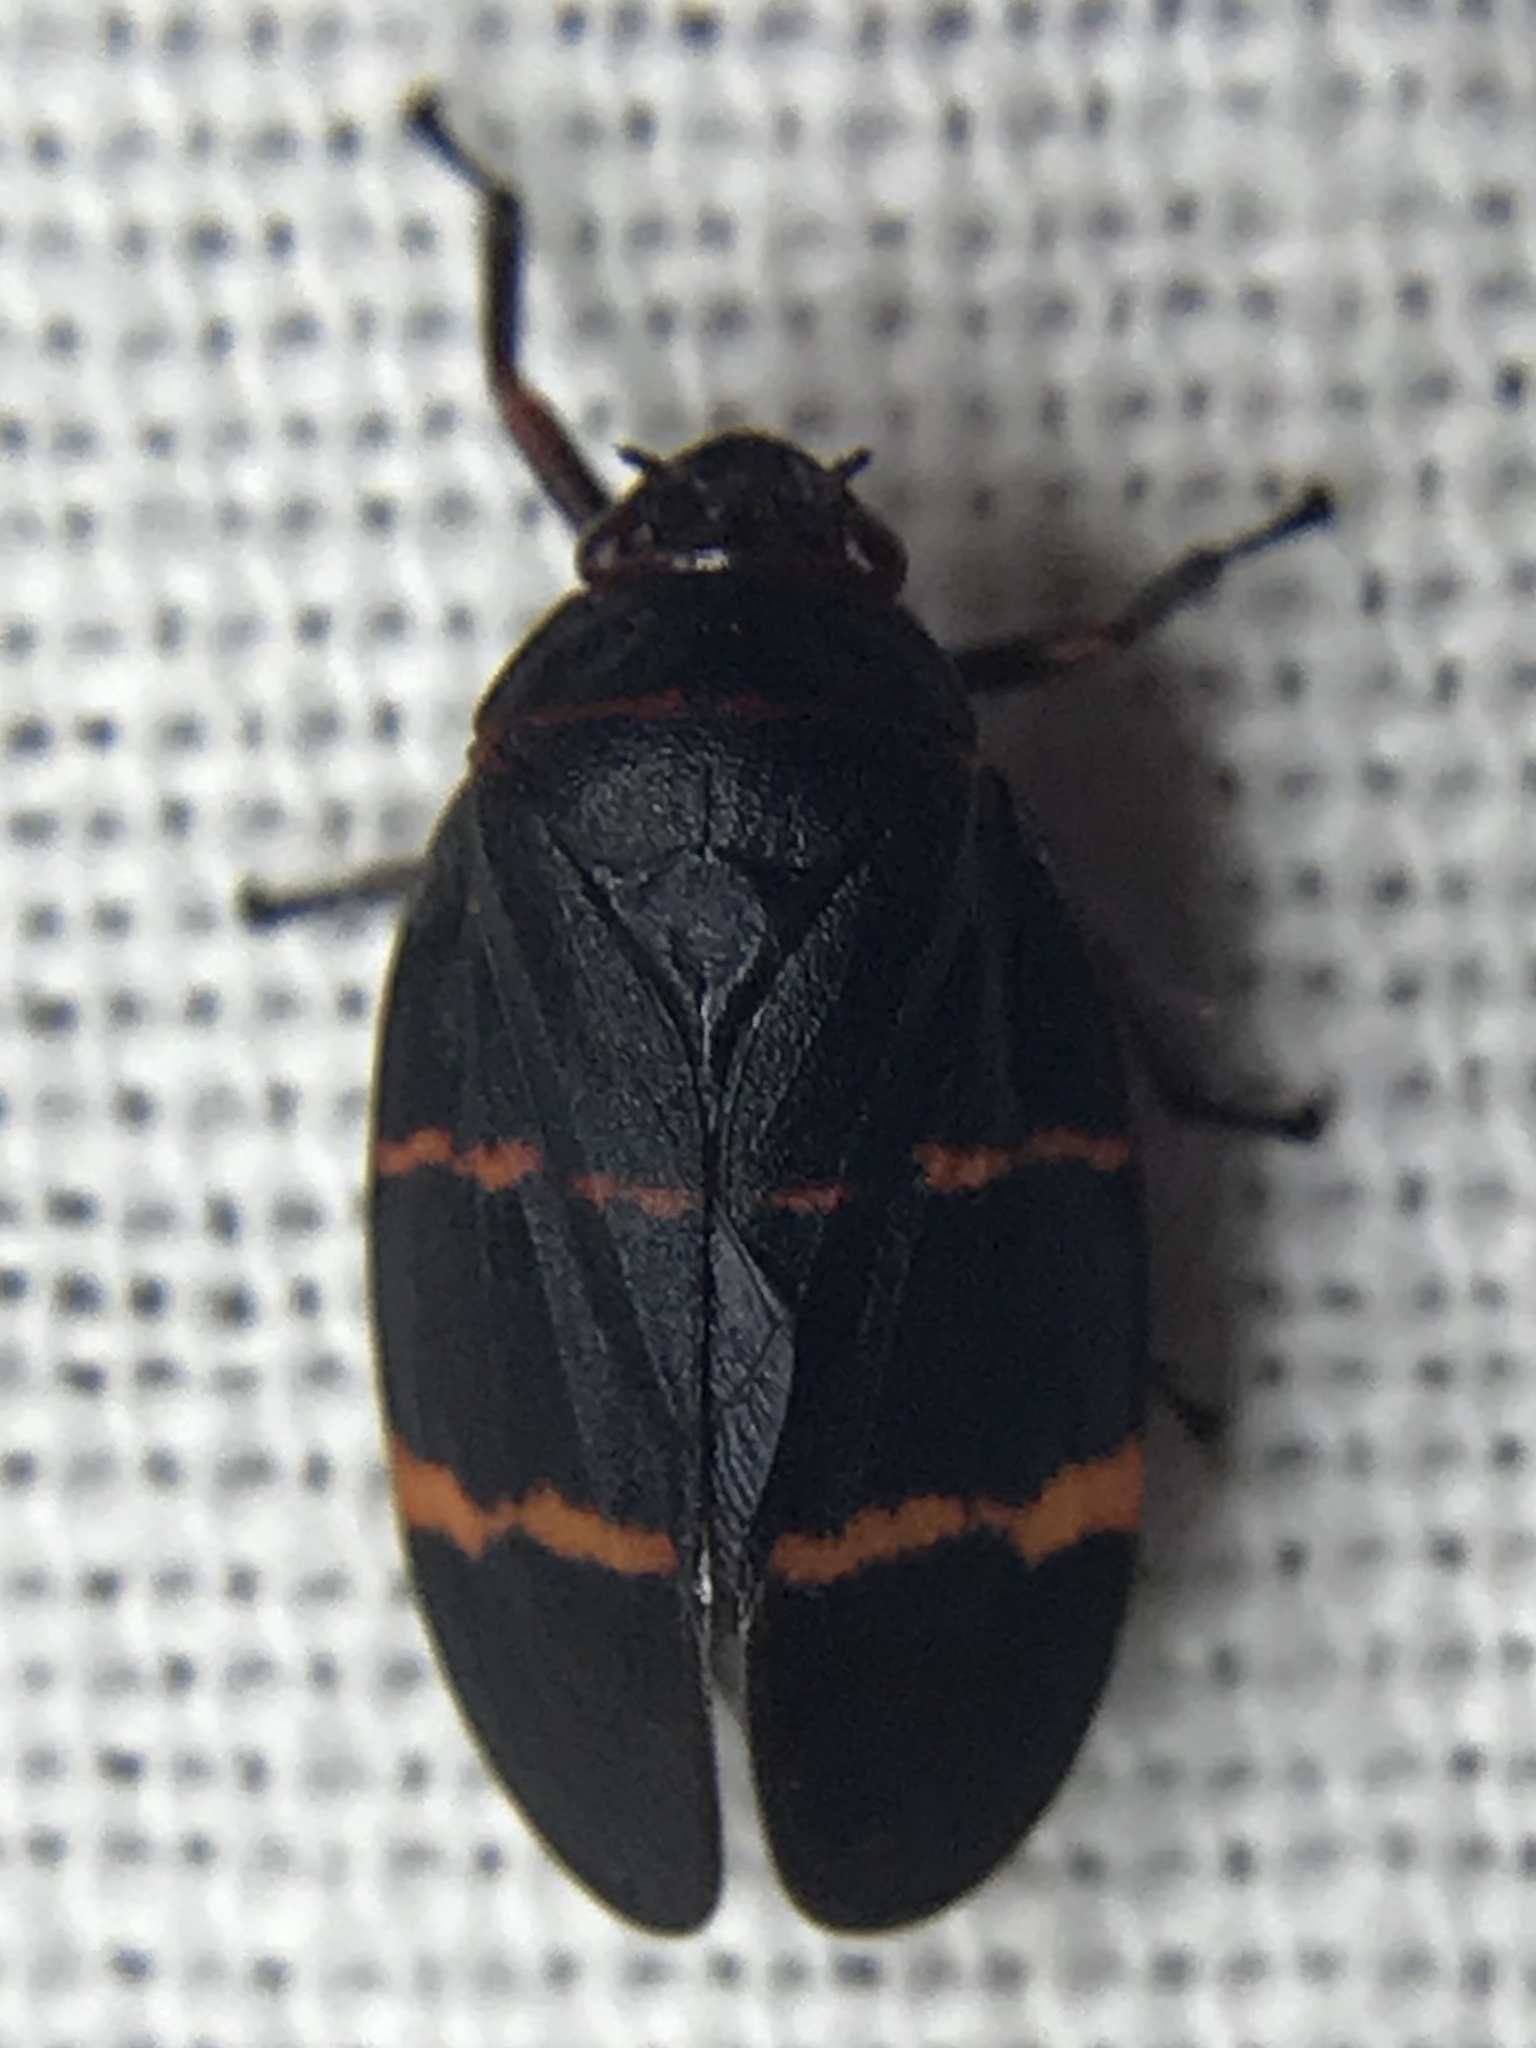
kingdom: Animalia
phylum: Arthropoda
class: Insecta
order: Hemiptera
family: Cercopidae
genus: Prosapia
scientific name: Prosapia bicincta
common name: Twolined spittlebug
